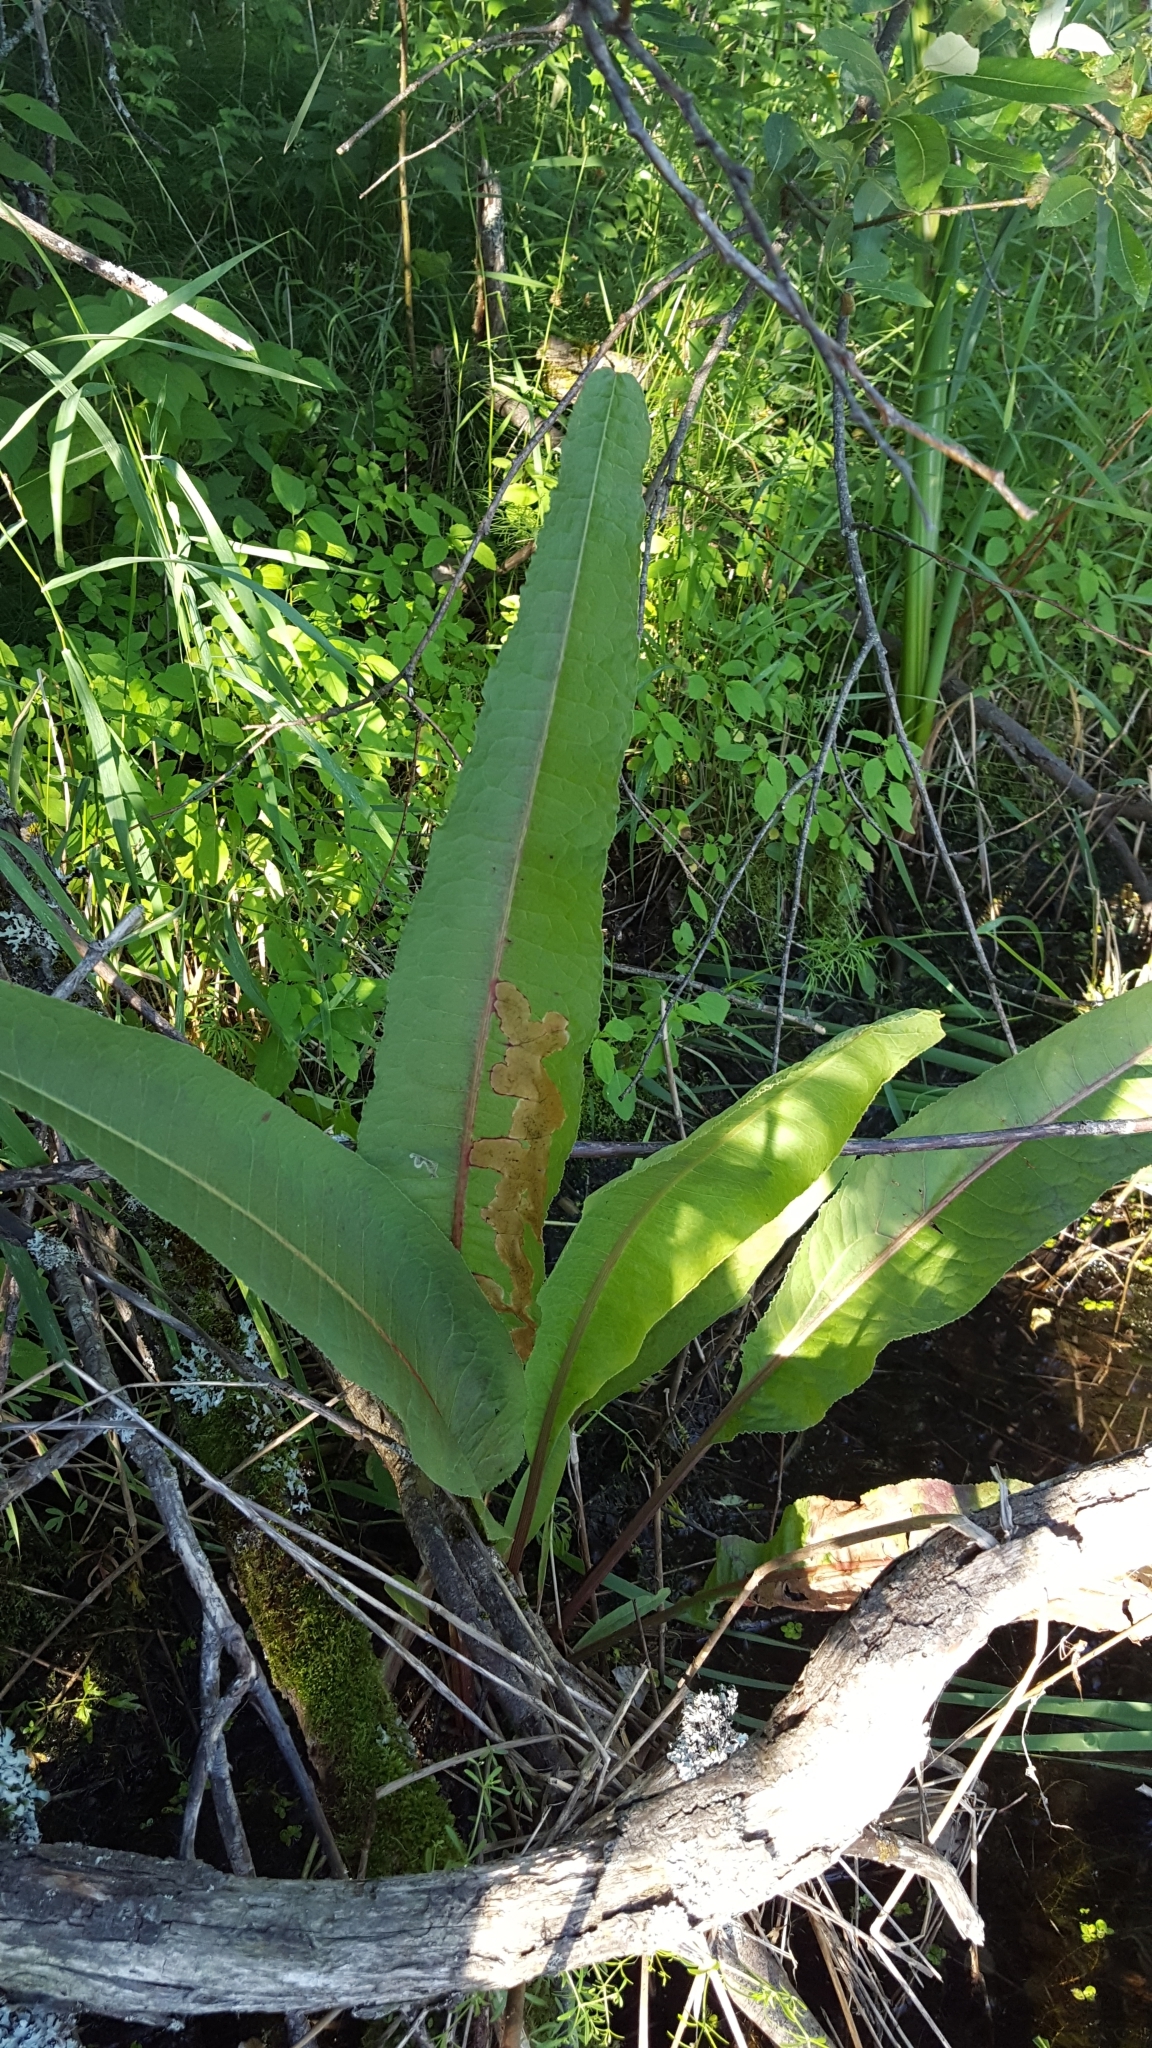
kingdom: Plantae
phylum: Tracheophyta
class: Magnoliopsida
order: Caryophyllales
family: Polygonaceae
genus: Rumex
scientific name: Rumex britannica
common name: British dock
